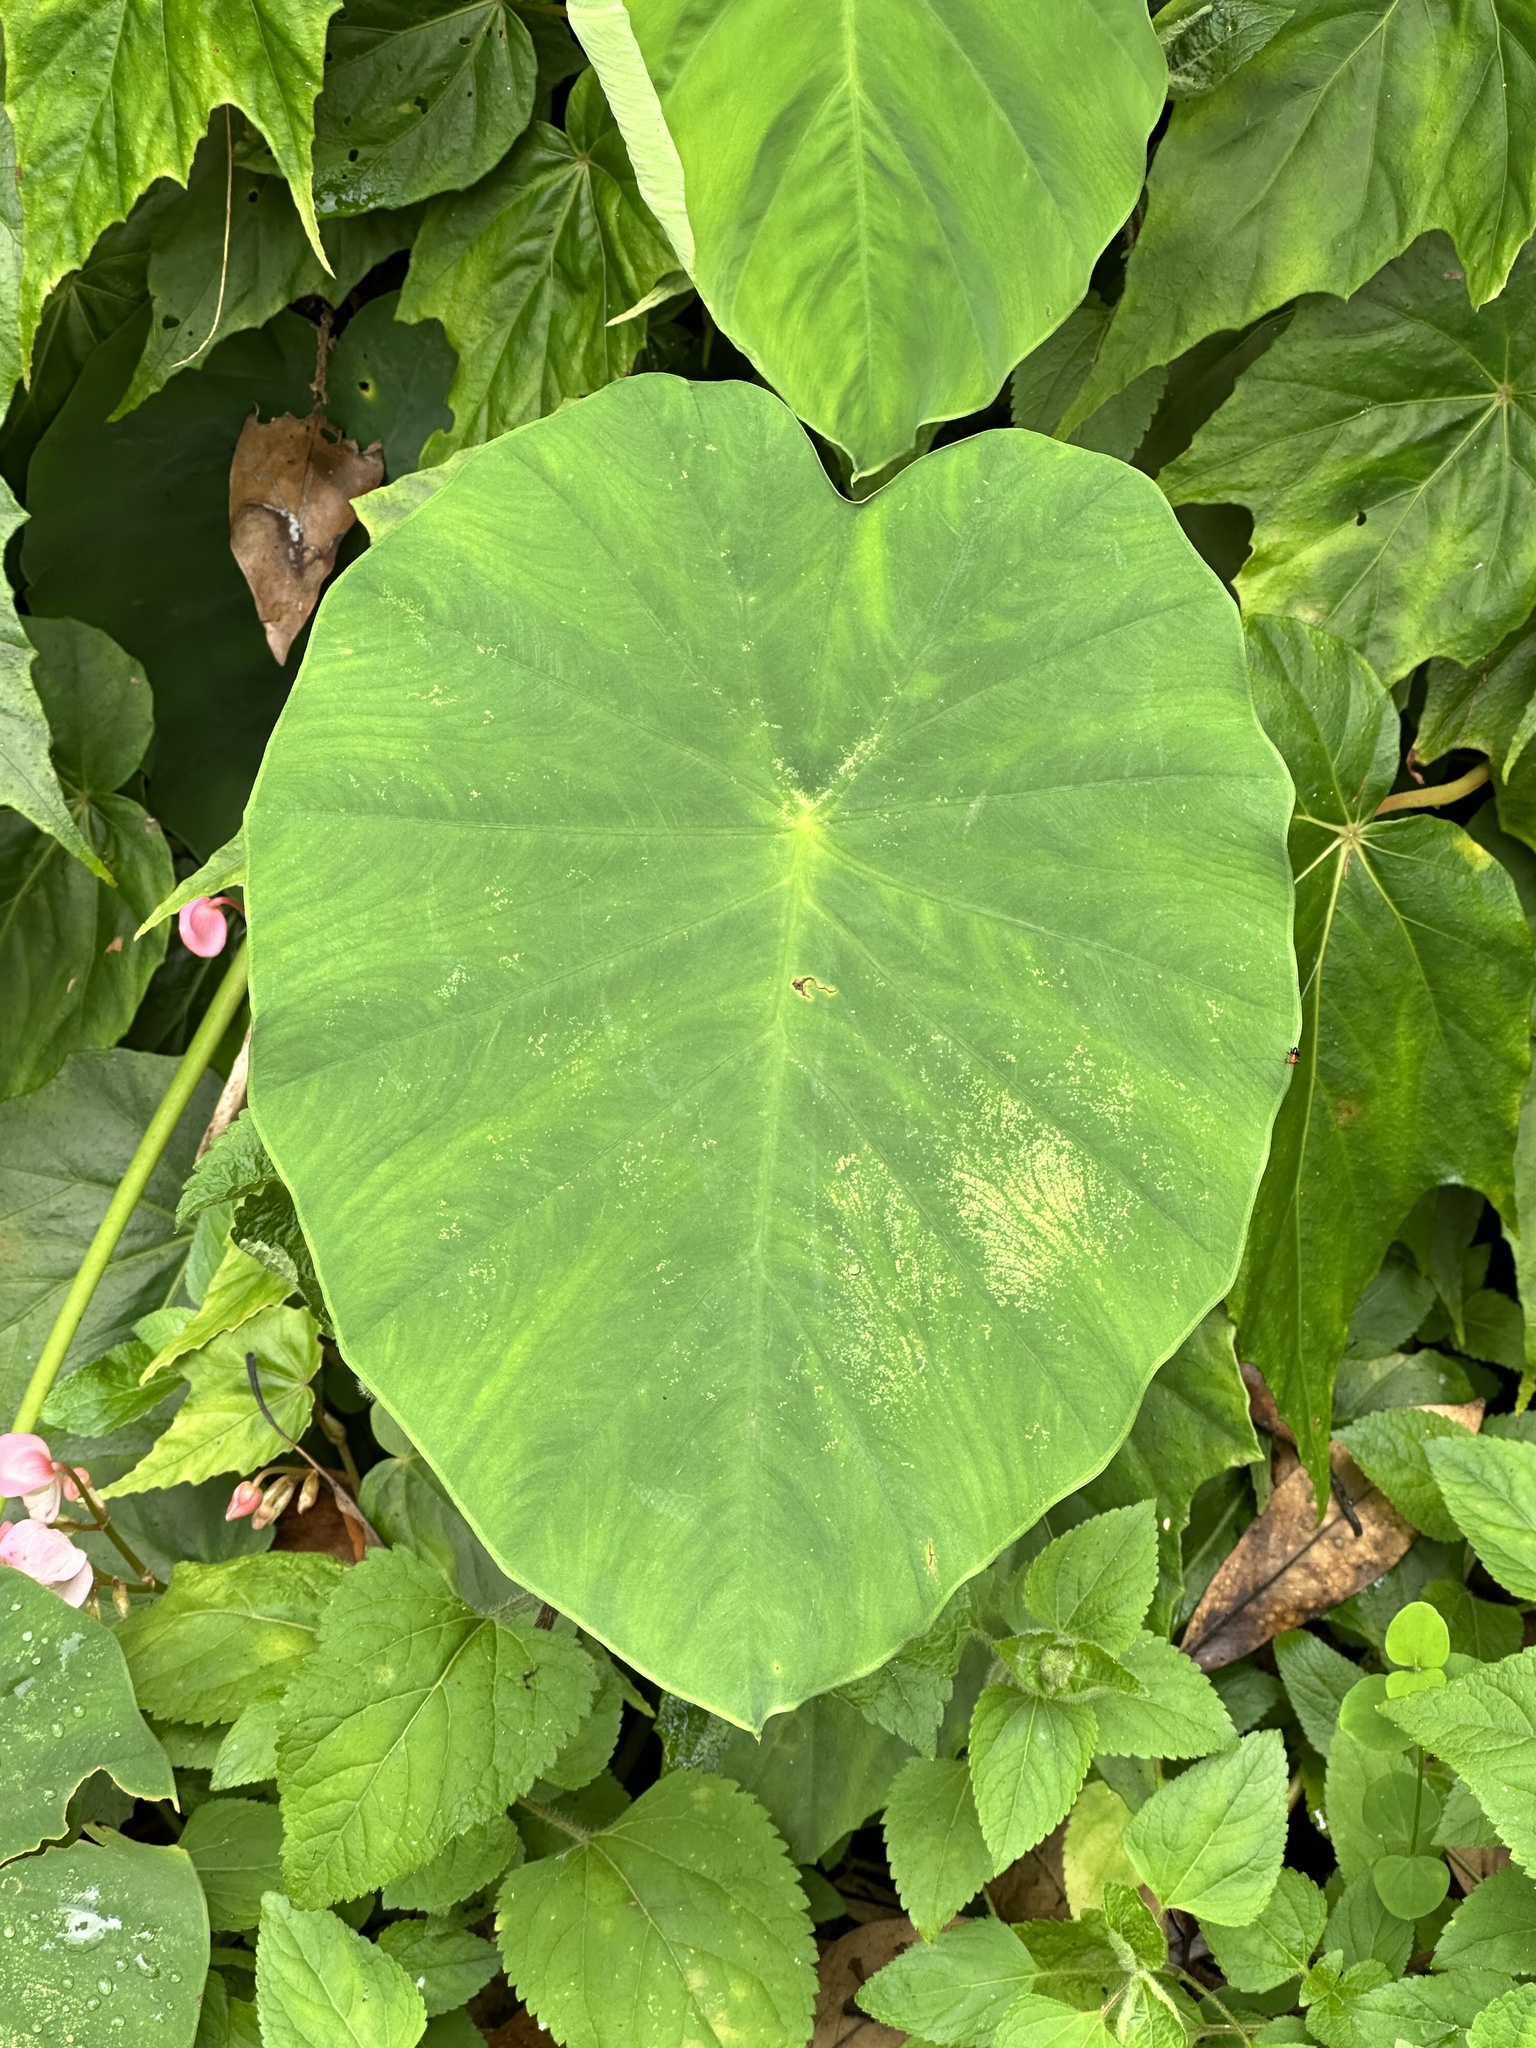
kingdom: Plantae
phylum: Tracheophyta
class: Liliopsida
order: Alismatales
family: Araceae
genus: Colocasia
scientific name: Colocasia esculenta
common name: Taro
